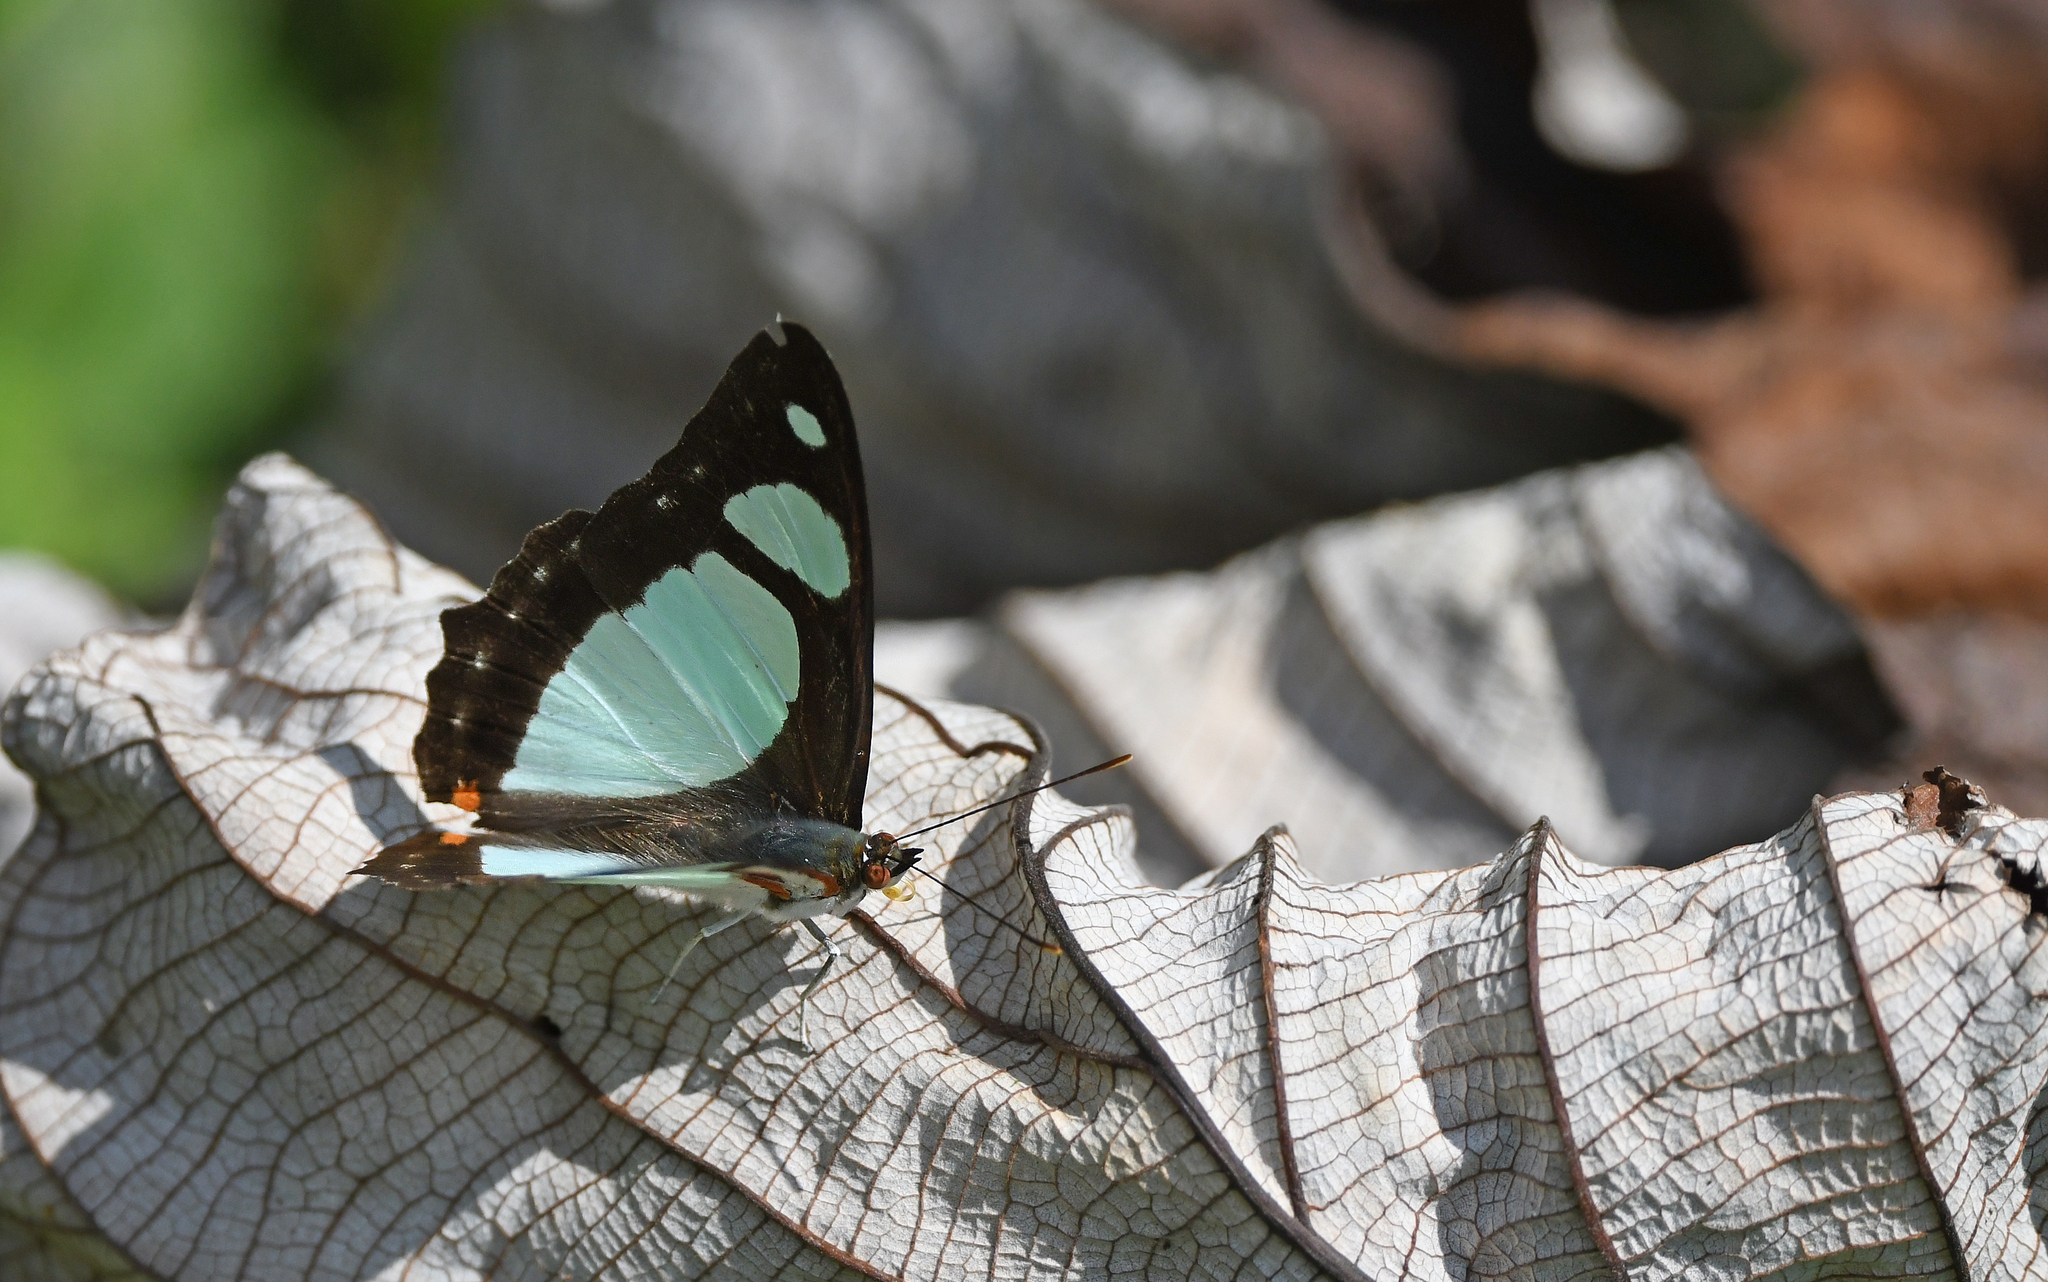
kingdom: Animalia
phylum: Arthropoda
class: Insecta
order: Lepidoptera
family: Nymphalidae
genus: Pyrrhogyra
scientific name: Pyrrhogyra edocla
